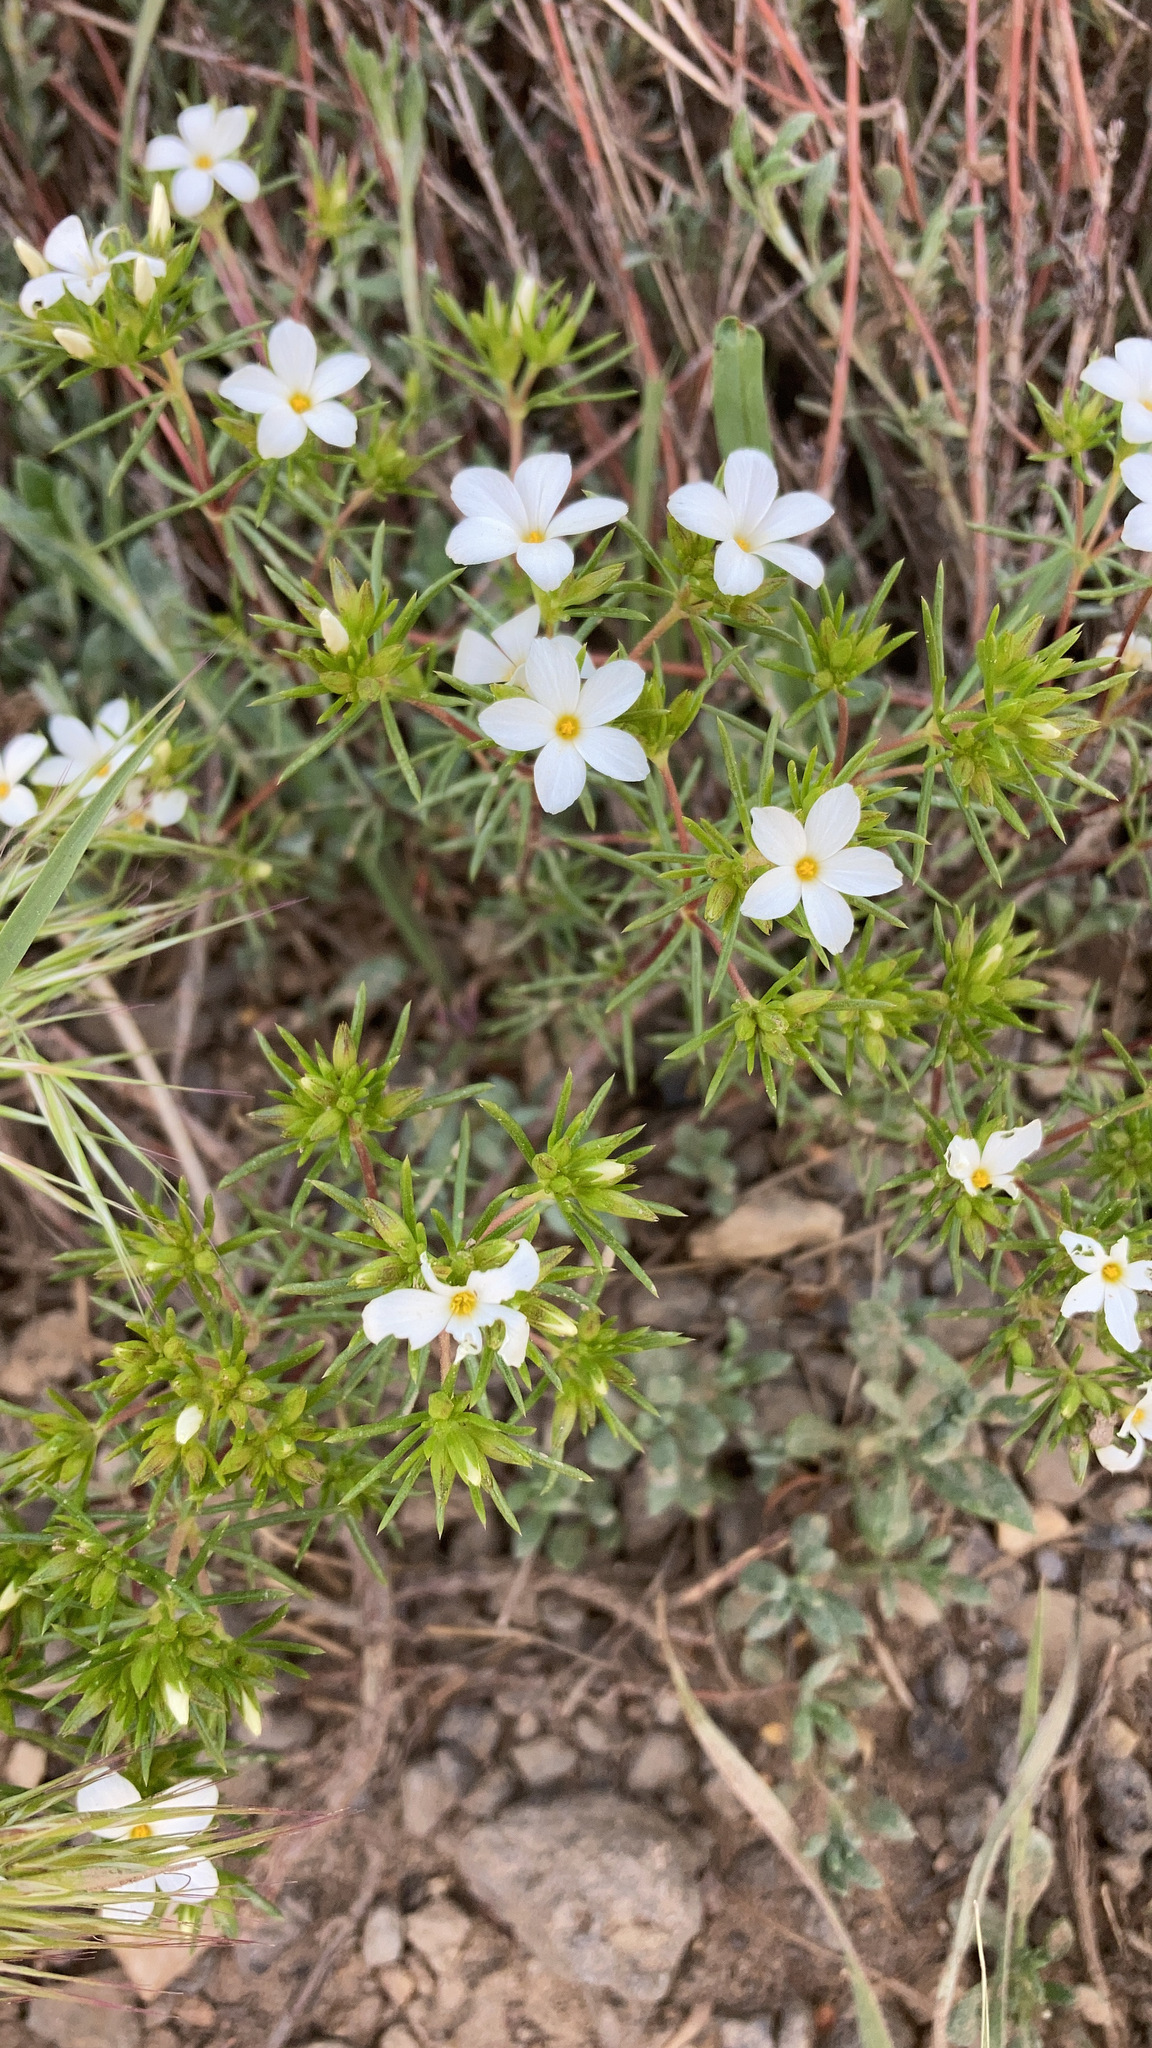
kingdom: Plantae
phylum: Tracheophyta
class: Magnoliopsida
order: Ericales
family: Polemoniaceae
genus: Leptosiphon
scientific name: Leptosiphon floribundum
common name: Many-flower linanthus
